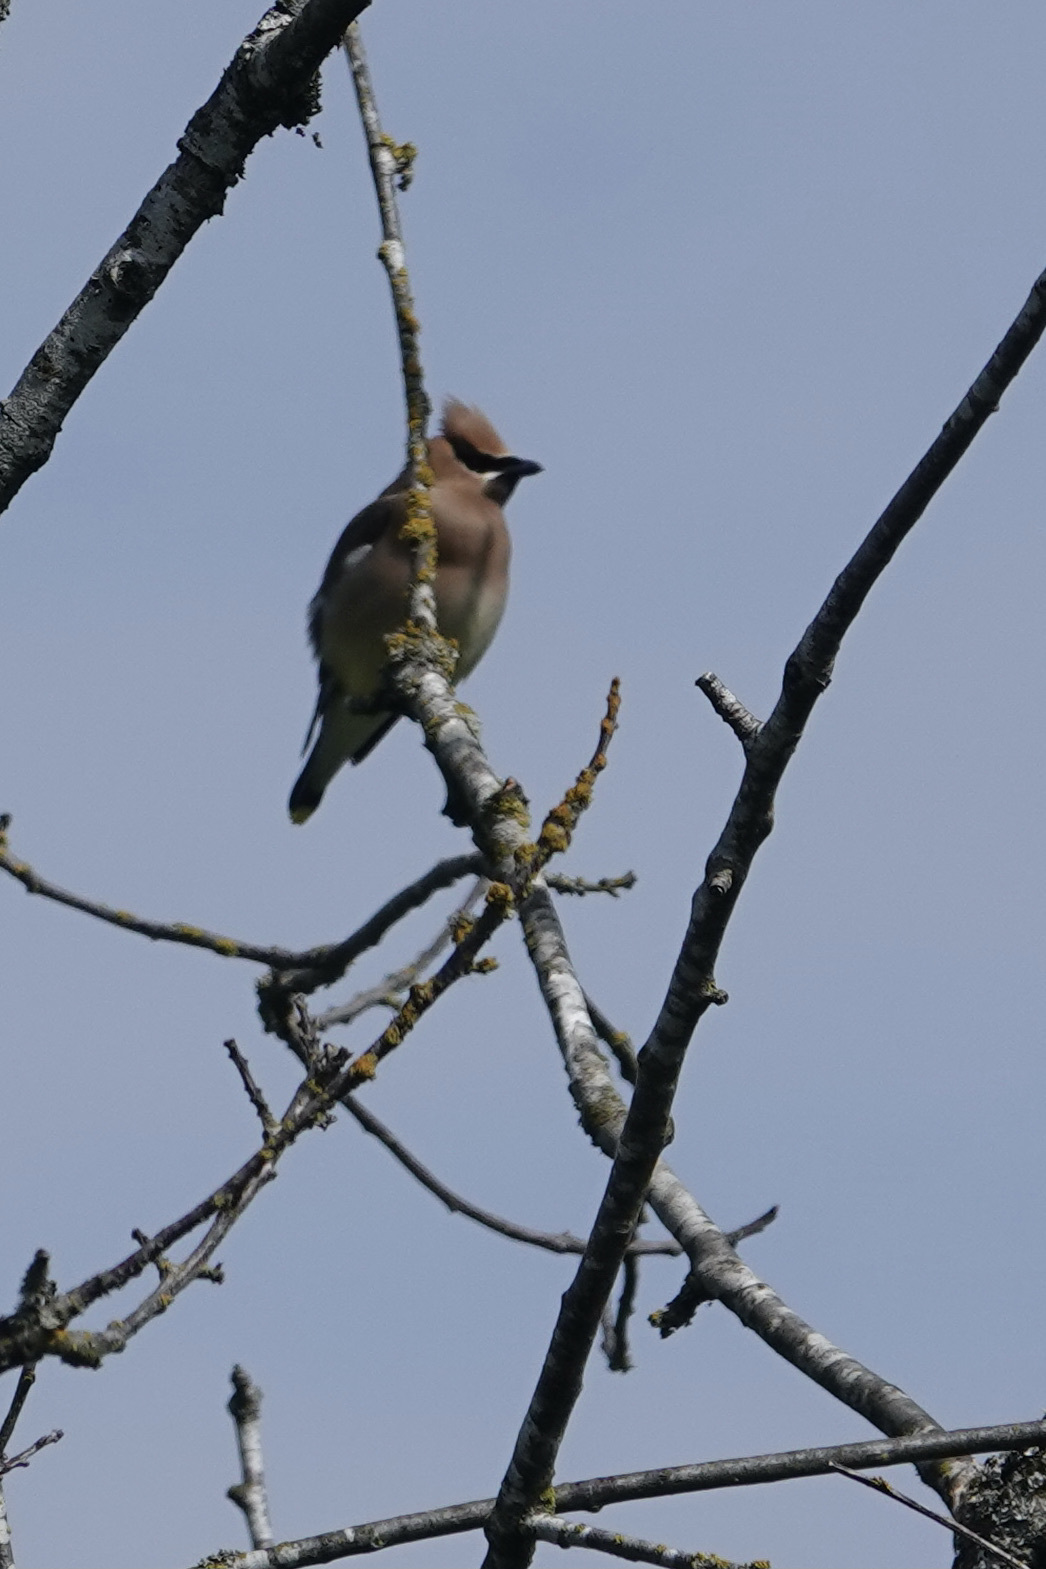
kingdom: Animalia
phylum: Chordata
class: Aves
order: Passeriformes
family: Bombycillidae
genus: Bombycilla
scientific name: Bombycilla cedrorum
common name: Cedar waxwing
